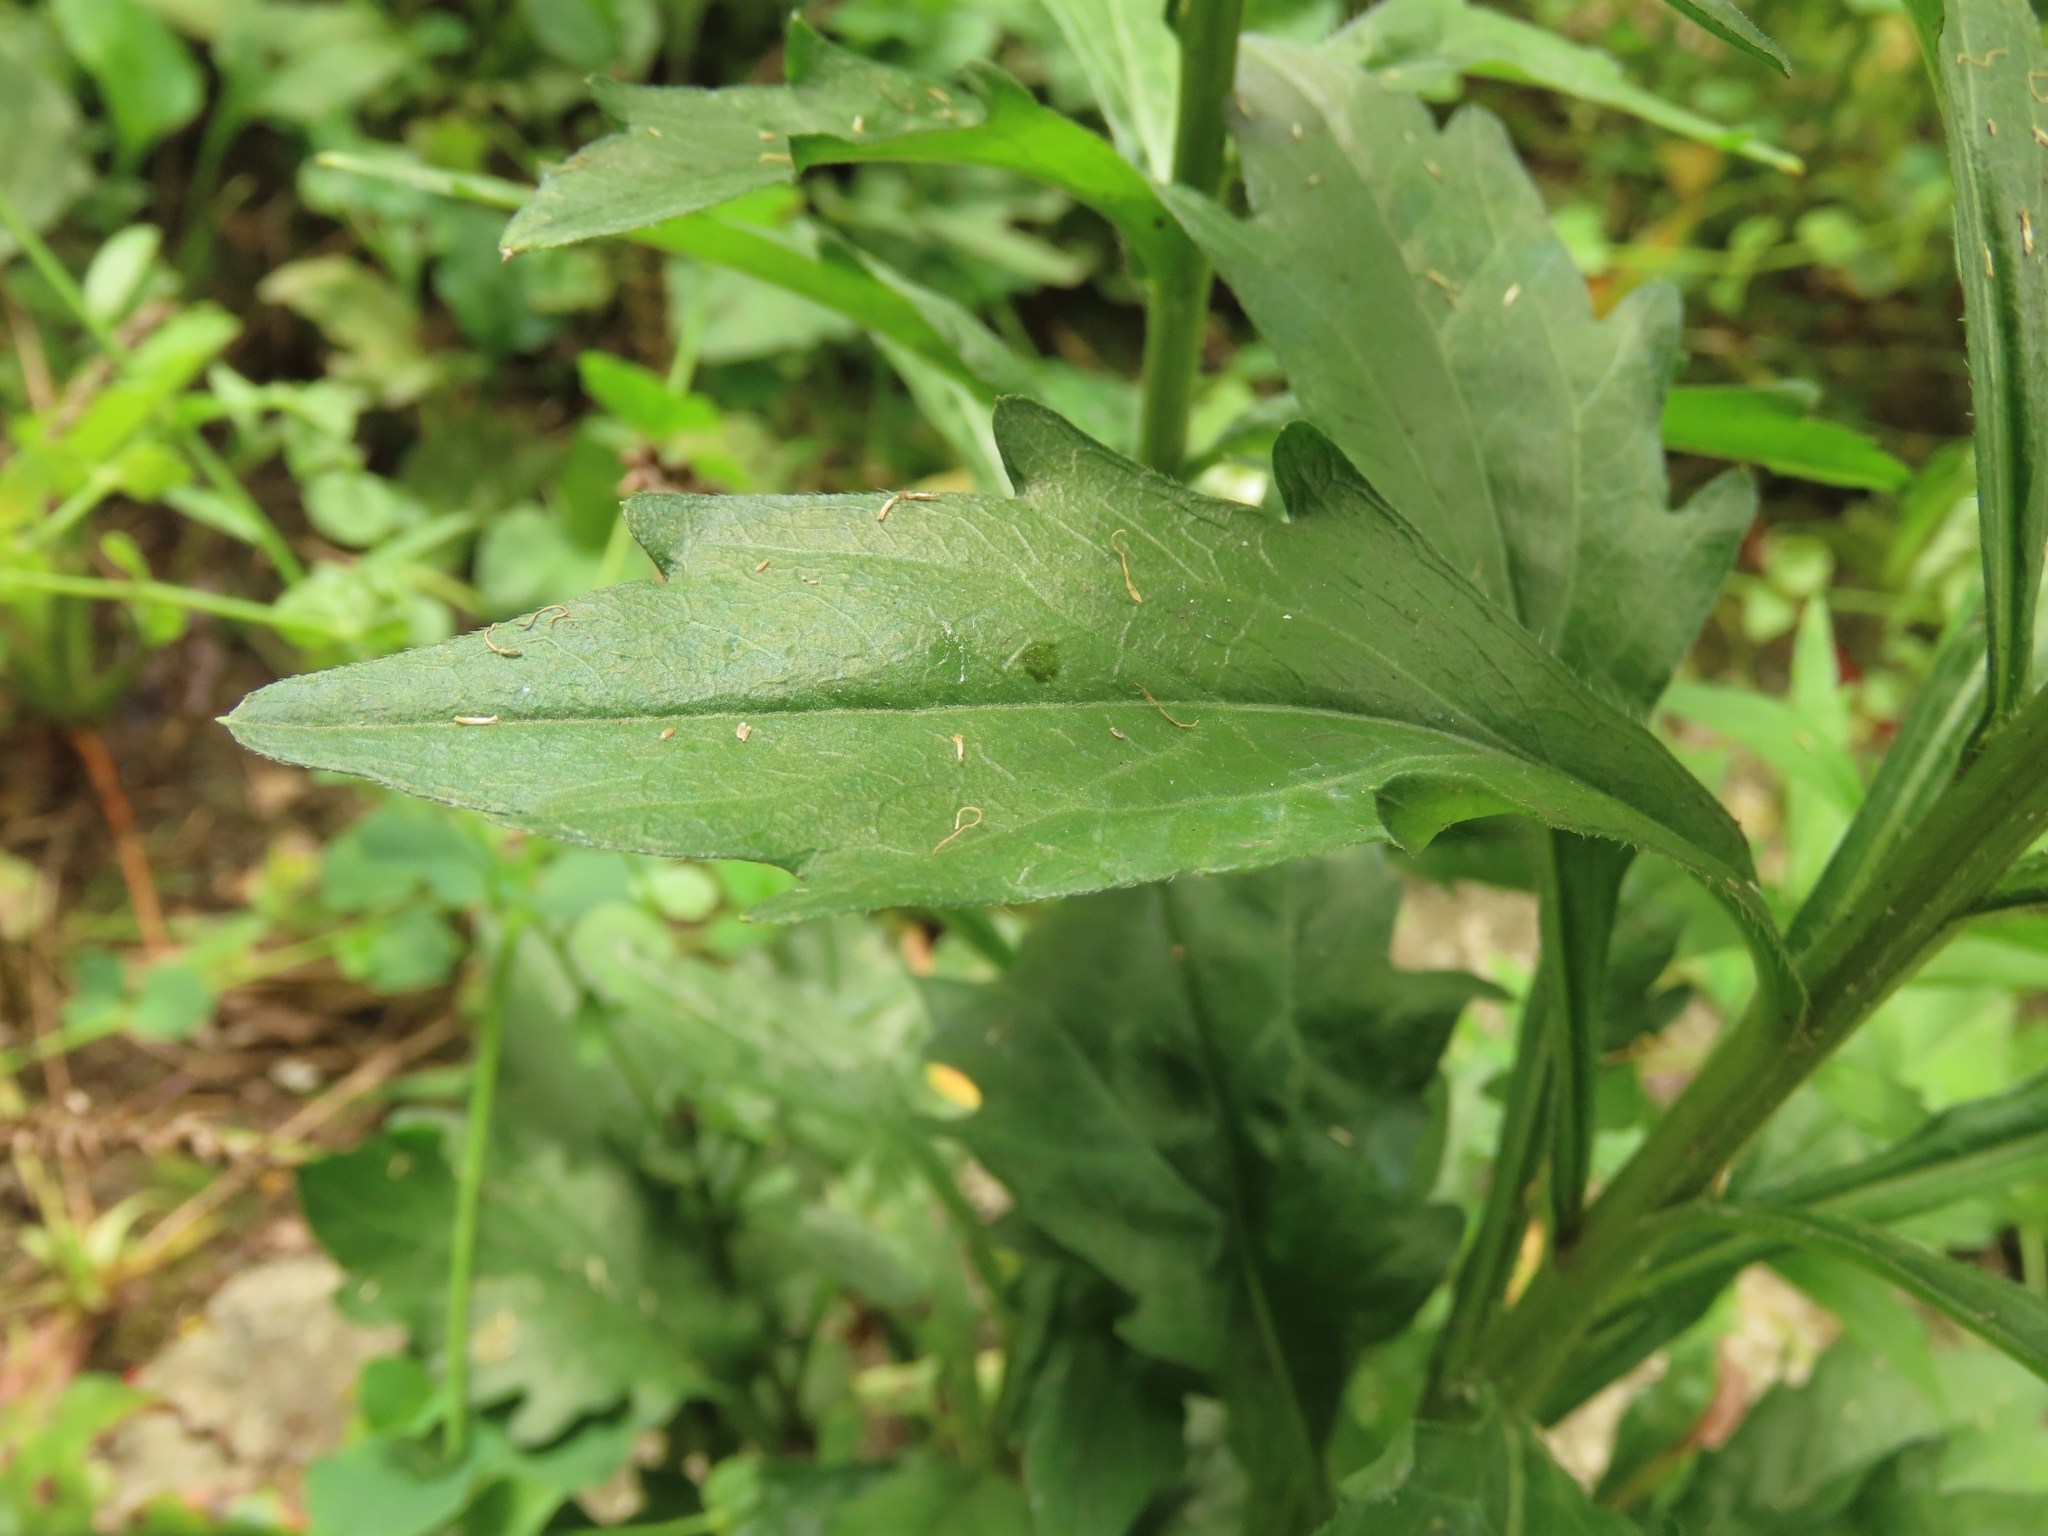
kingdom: Plantae
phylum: Tracheophyta
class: Magnoliopsida
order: Asterales
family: Asteraceae
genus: Erigeron
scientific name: Erigeron annuus
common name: Tall fleabane
